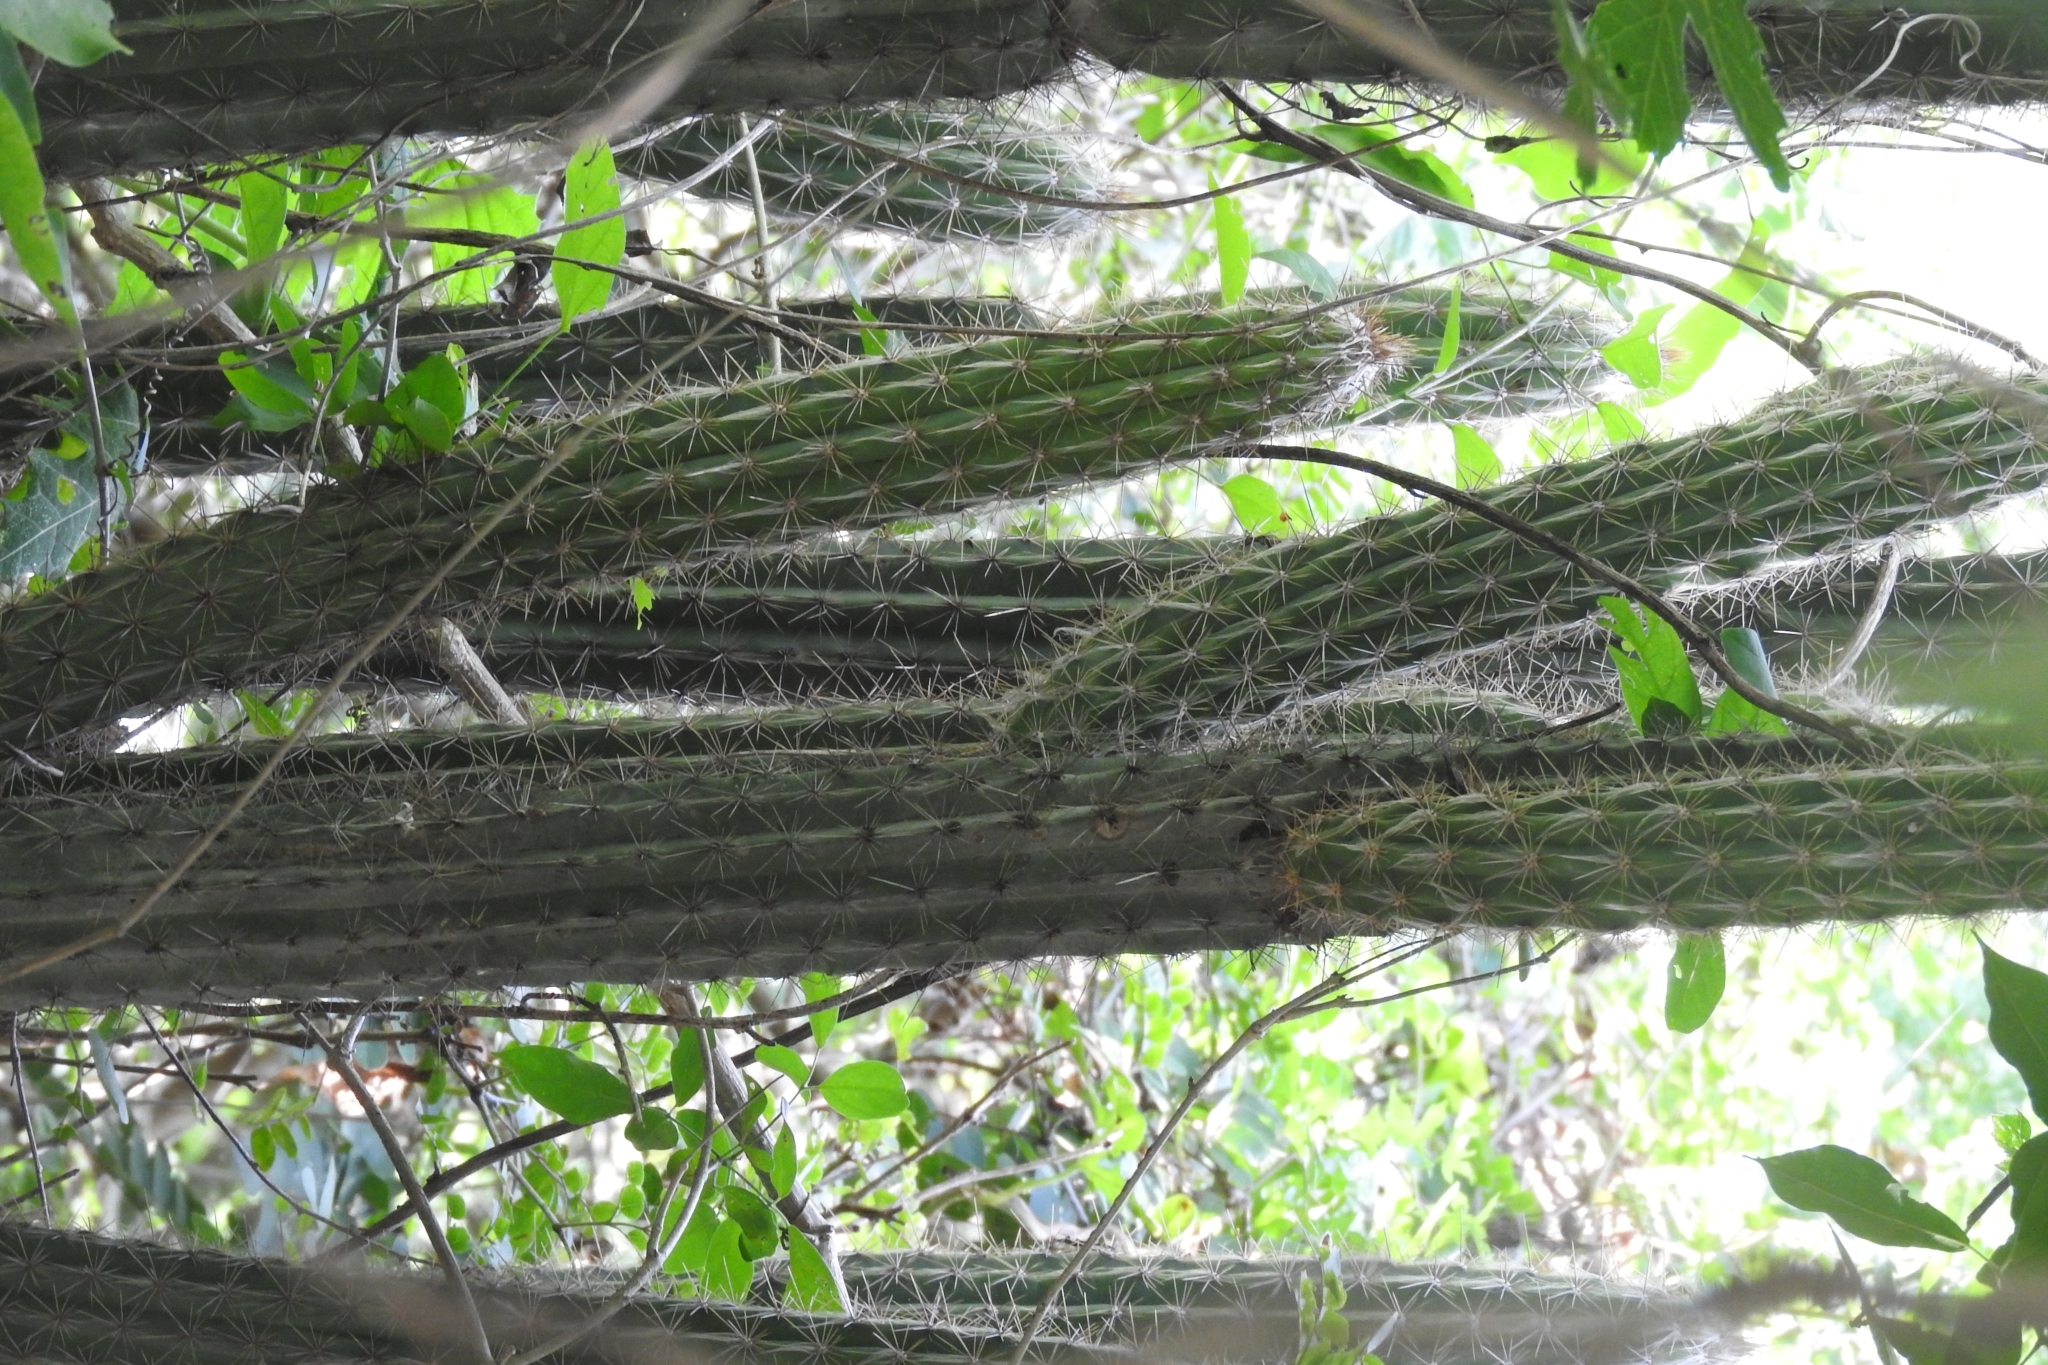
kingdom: Plantae
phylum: Tracheophyta
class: Magnoliopsida
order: Caryophyllales
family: Cactaceae
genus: Pilosocereus
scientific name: Pilosocereus gaumeri
